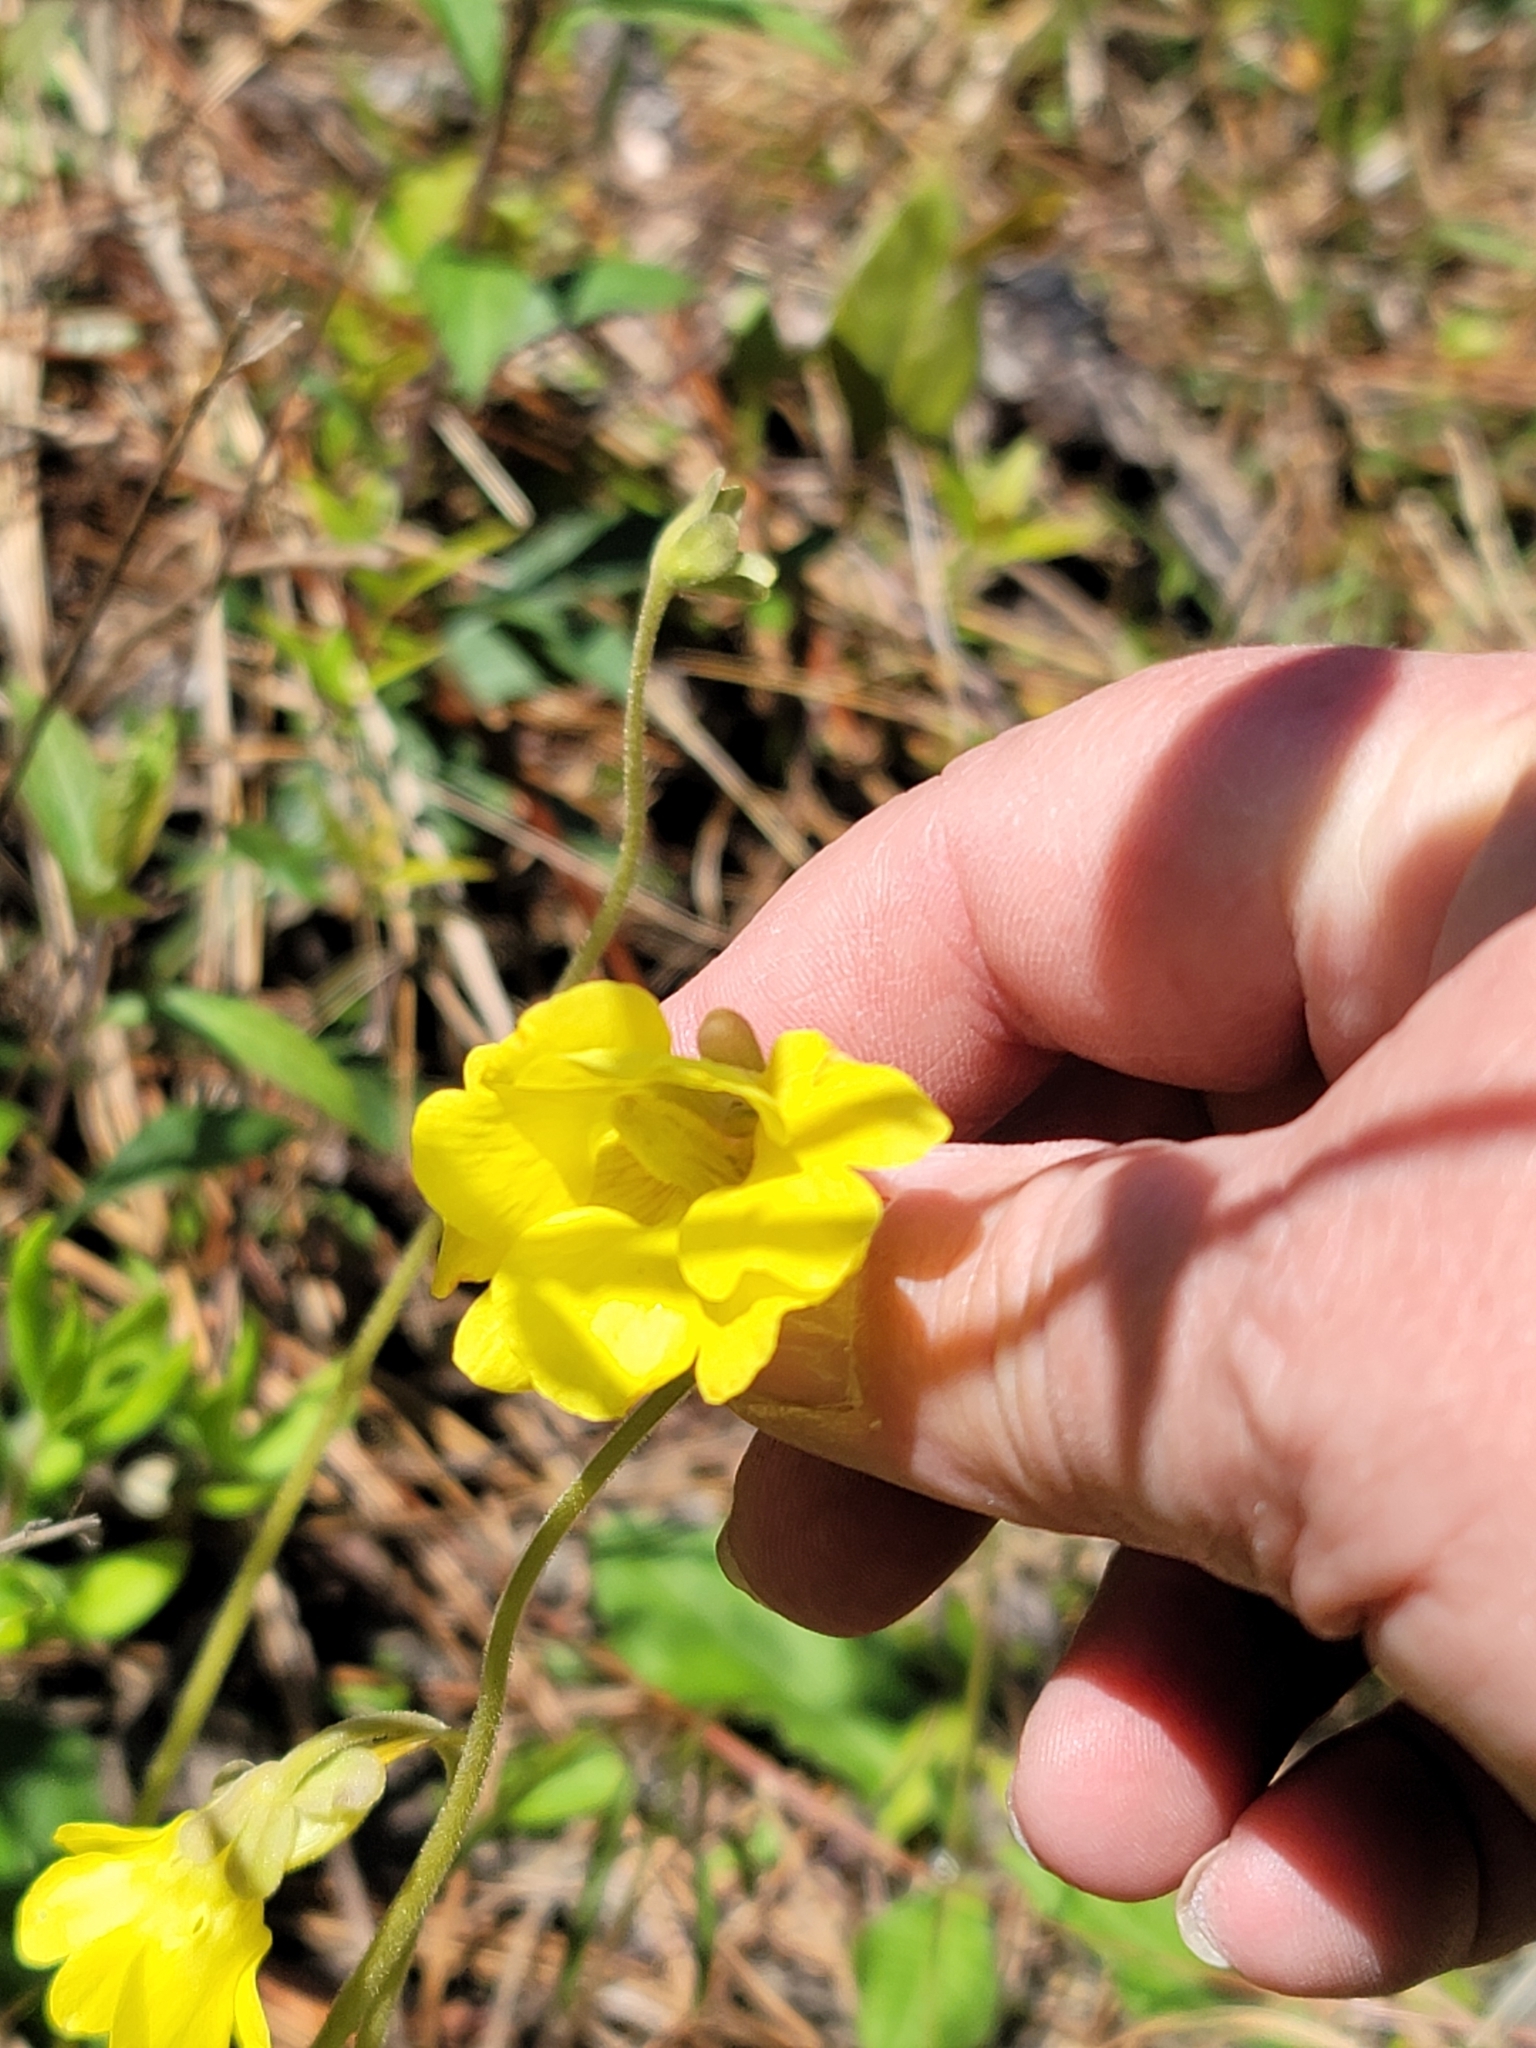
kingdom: Plantae
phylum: Tracheophyta
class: Magnoliopsida
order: Lamiales
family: Lentibulariaceae
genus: Pinguicula
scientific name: Pinguicula lutea
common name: Yellow butterwort
